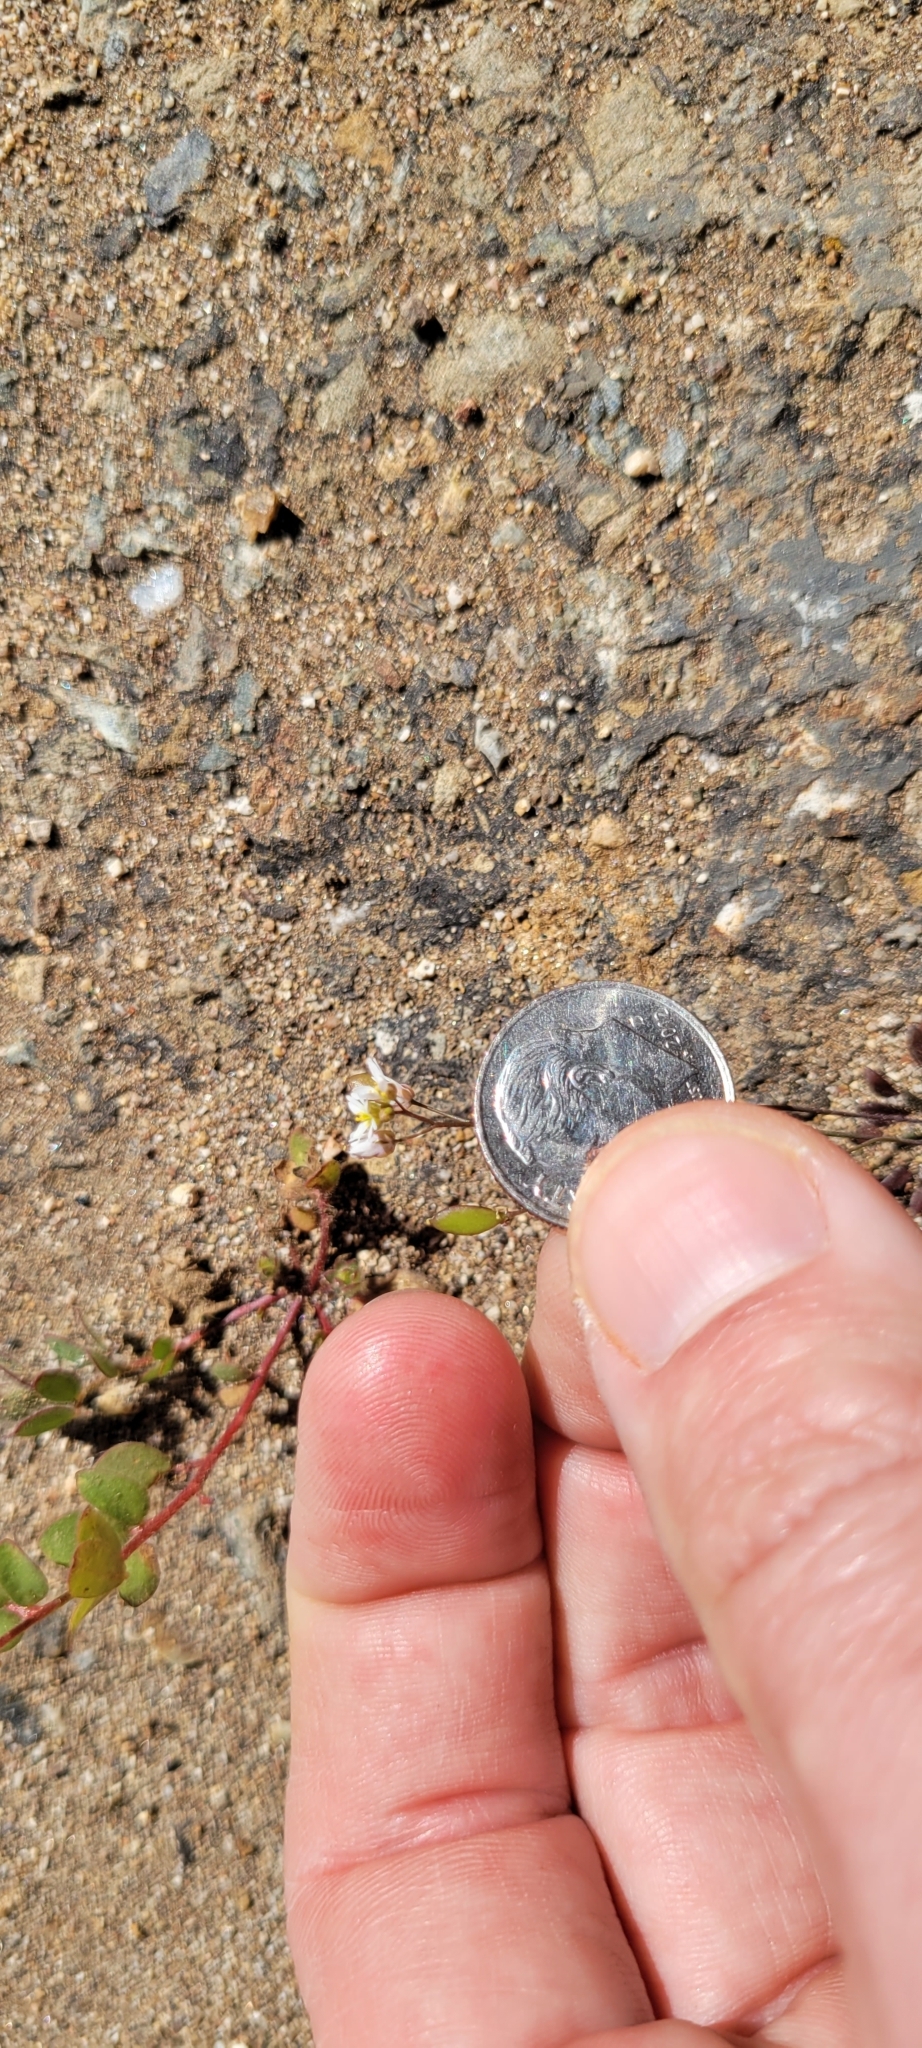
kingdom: Plantae
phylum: Tracheophyta
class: Magnoliopsida
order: Brassicales
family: Brassicaceae
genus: Draba
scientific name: Draba verna
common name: Spring draba
